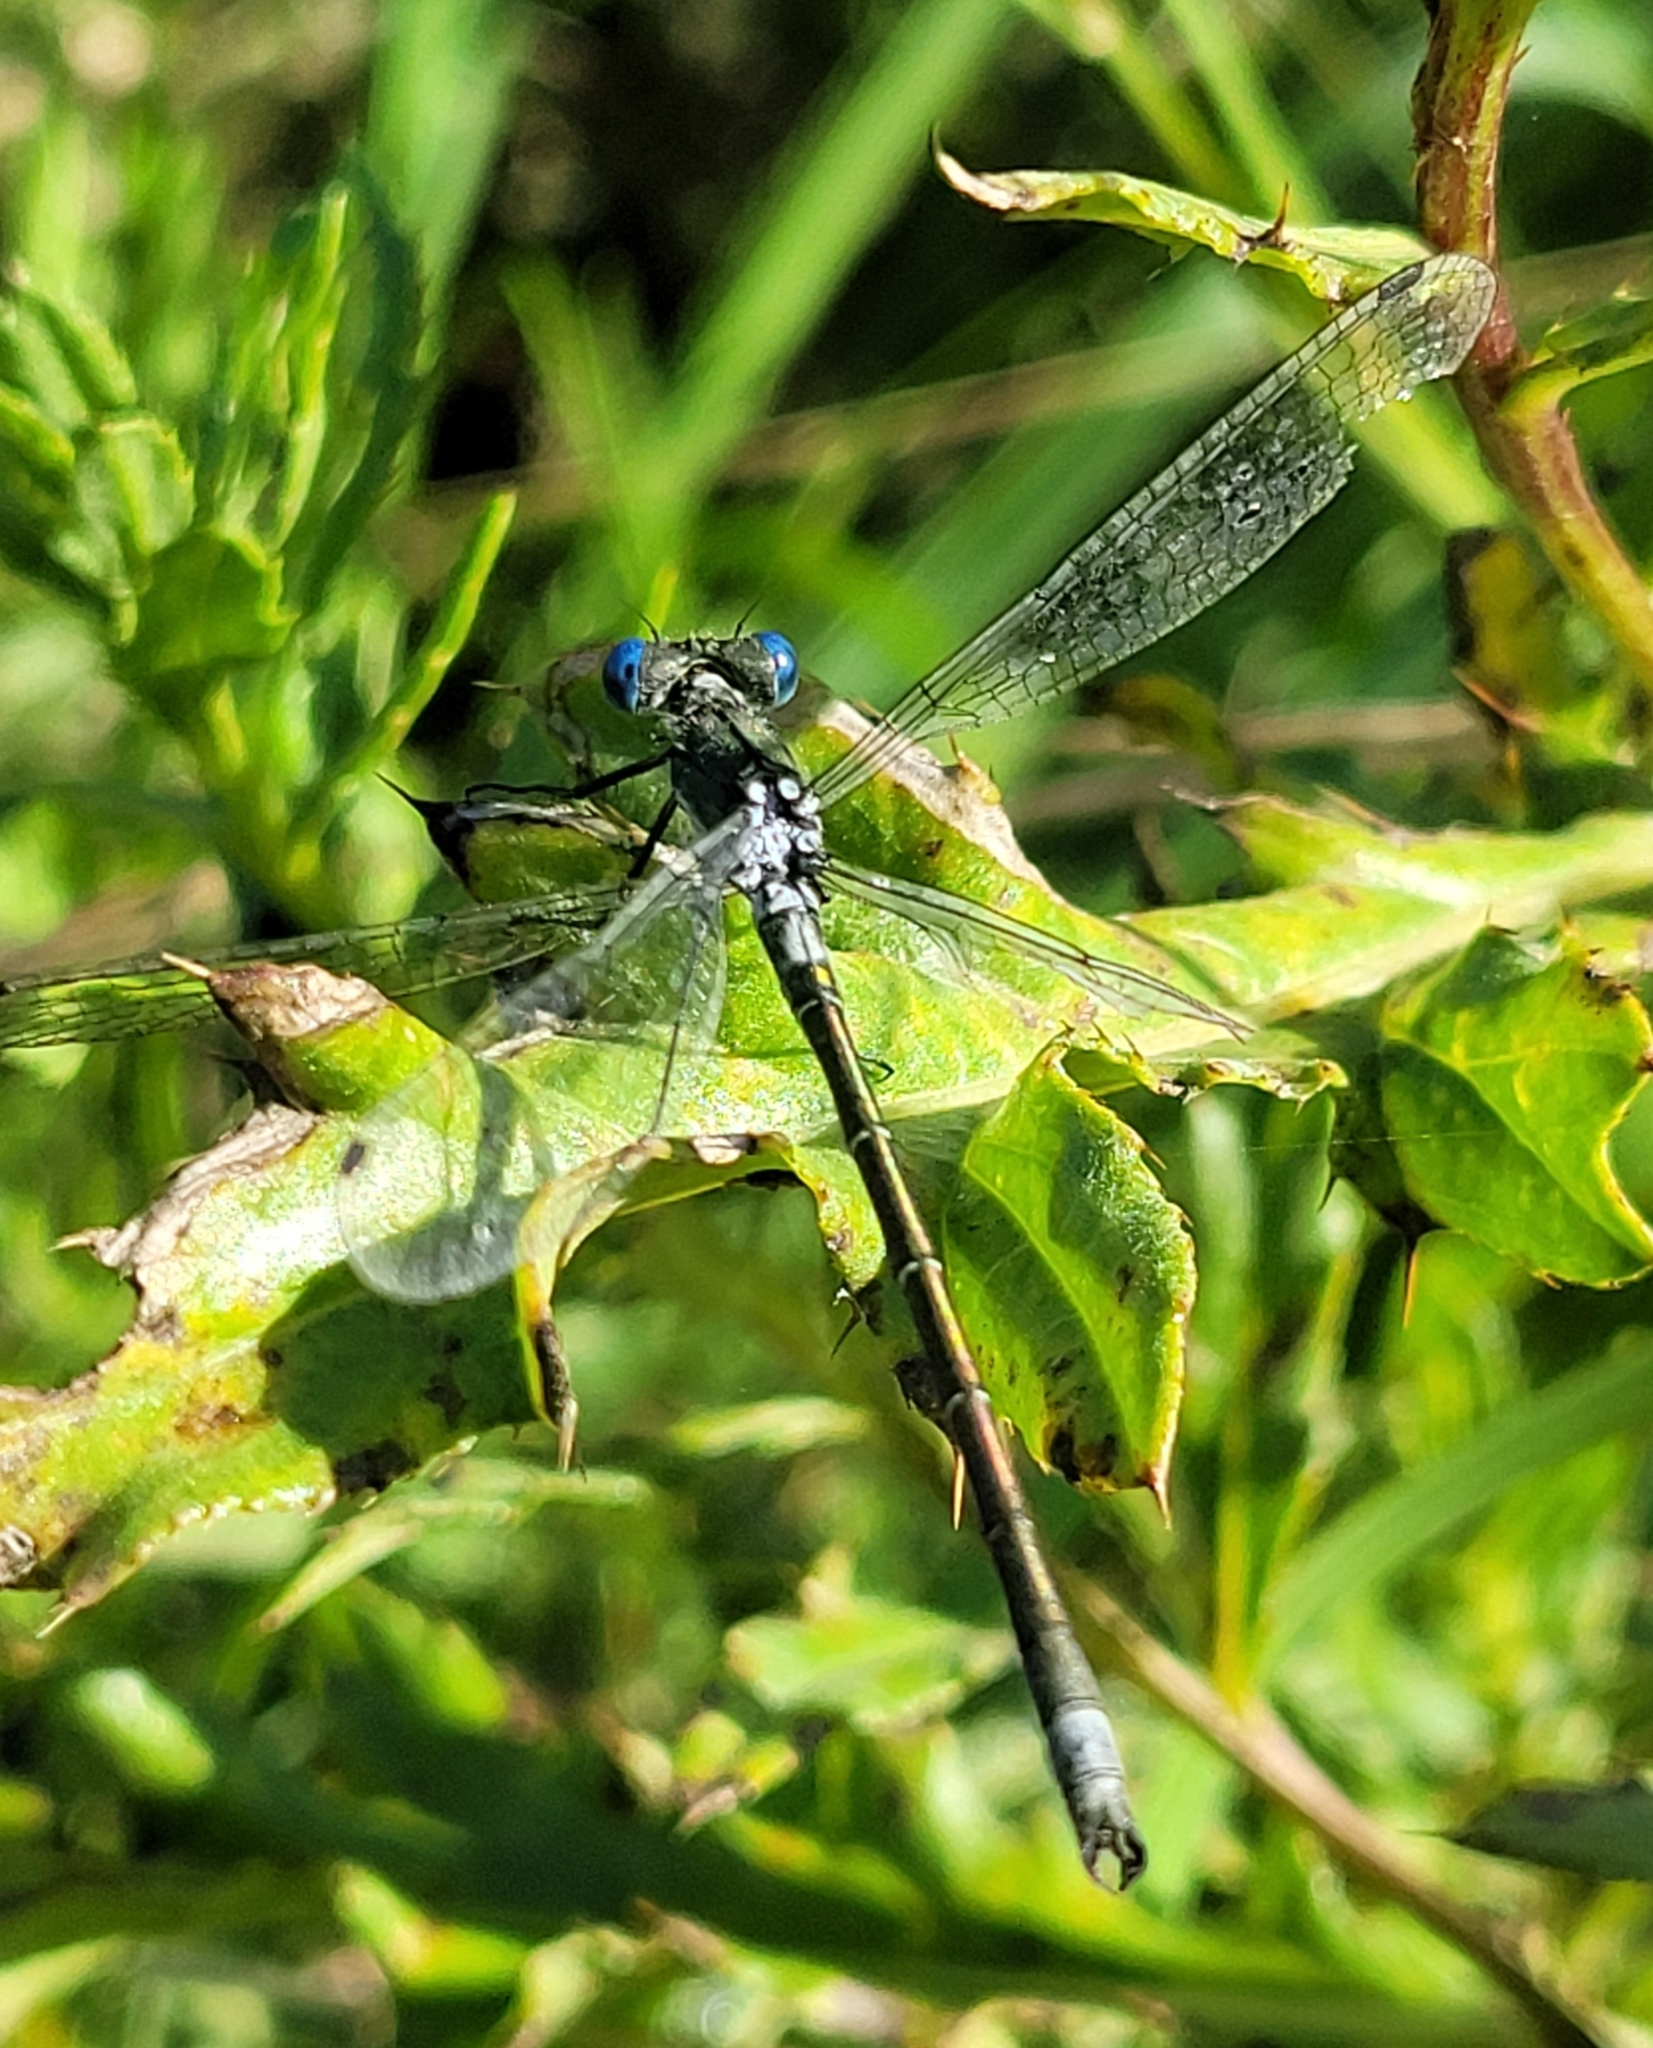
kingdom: Animalia
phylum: Arthropoda
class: Insecta
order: Odonata
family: Lestidae
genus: Lestes
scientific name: Lestes dryas
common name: Scarce emerald damselfly
